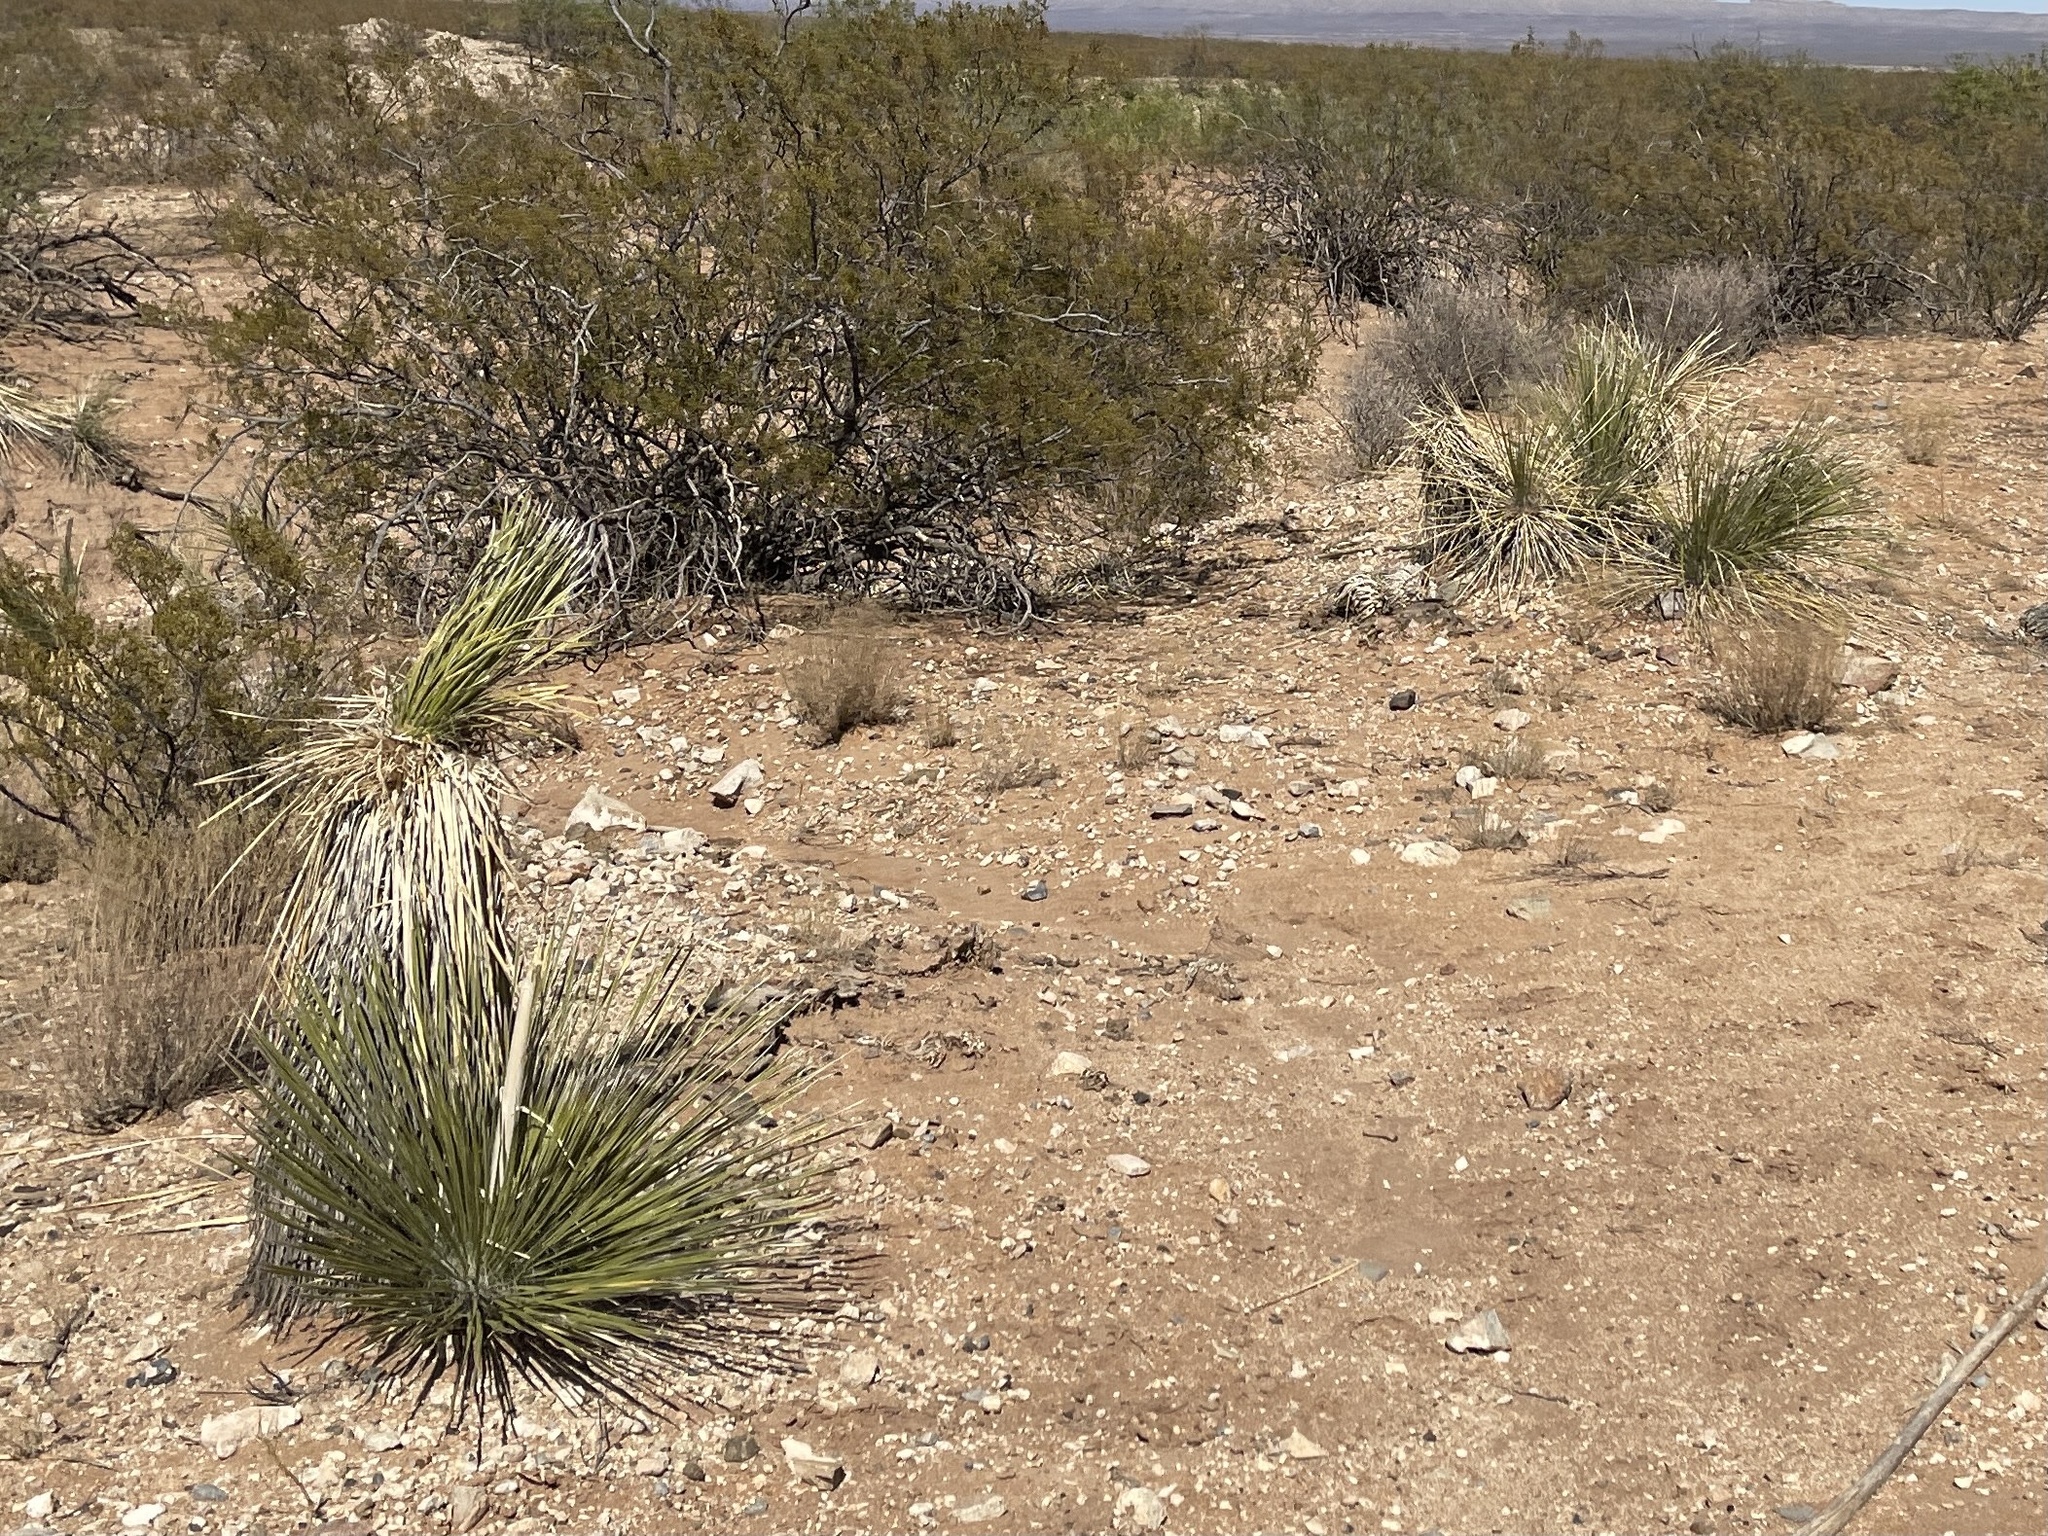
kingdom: Plantae
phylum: Tracheophyta
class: Liliopsida
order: Asparagales
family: Asparagaceae
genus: Yucca
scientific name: Yucca elata
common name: Palmella
